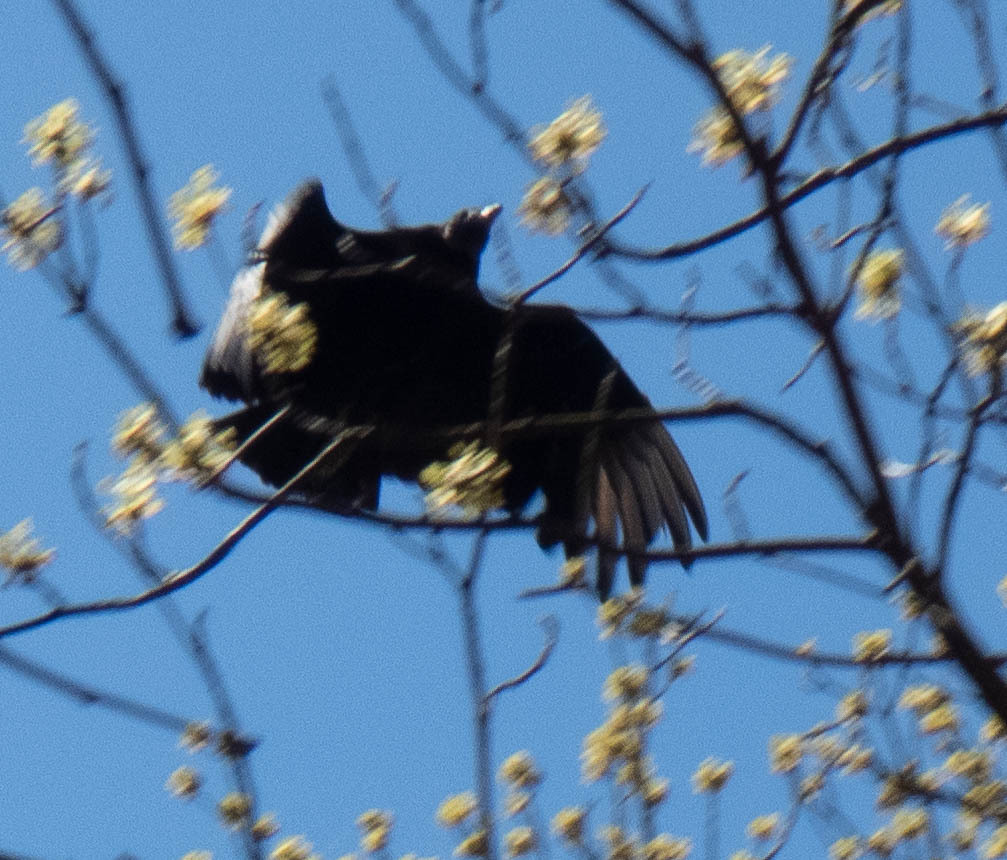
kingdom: Animalia
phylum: Chordata
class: Aves
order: Accipitriformes
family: Cathartidae
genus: Coragyps
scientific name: Coragyps atratus
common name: Black vulture
